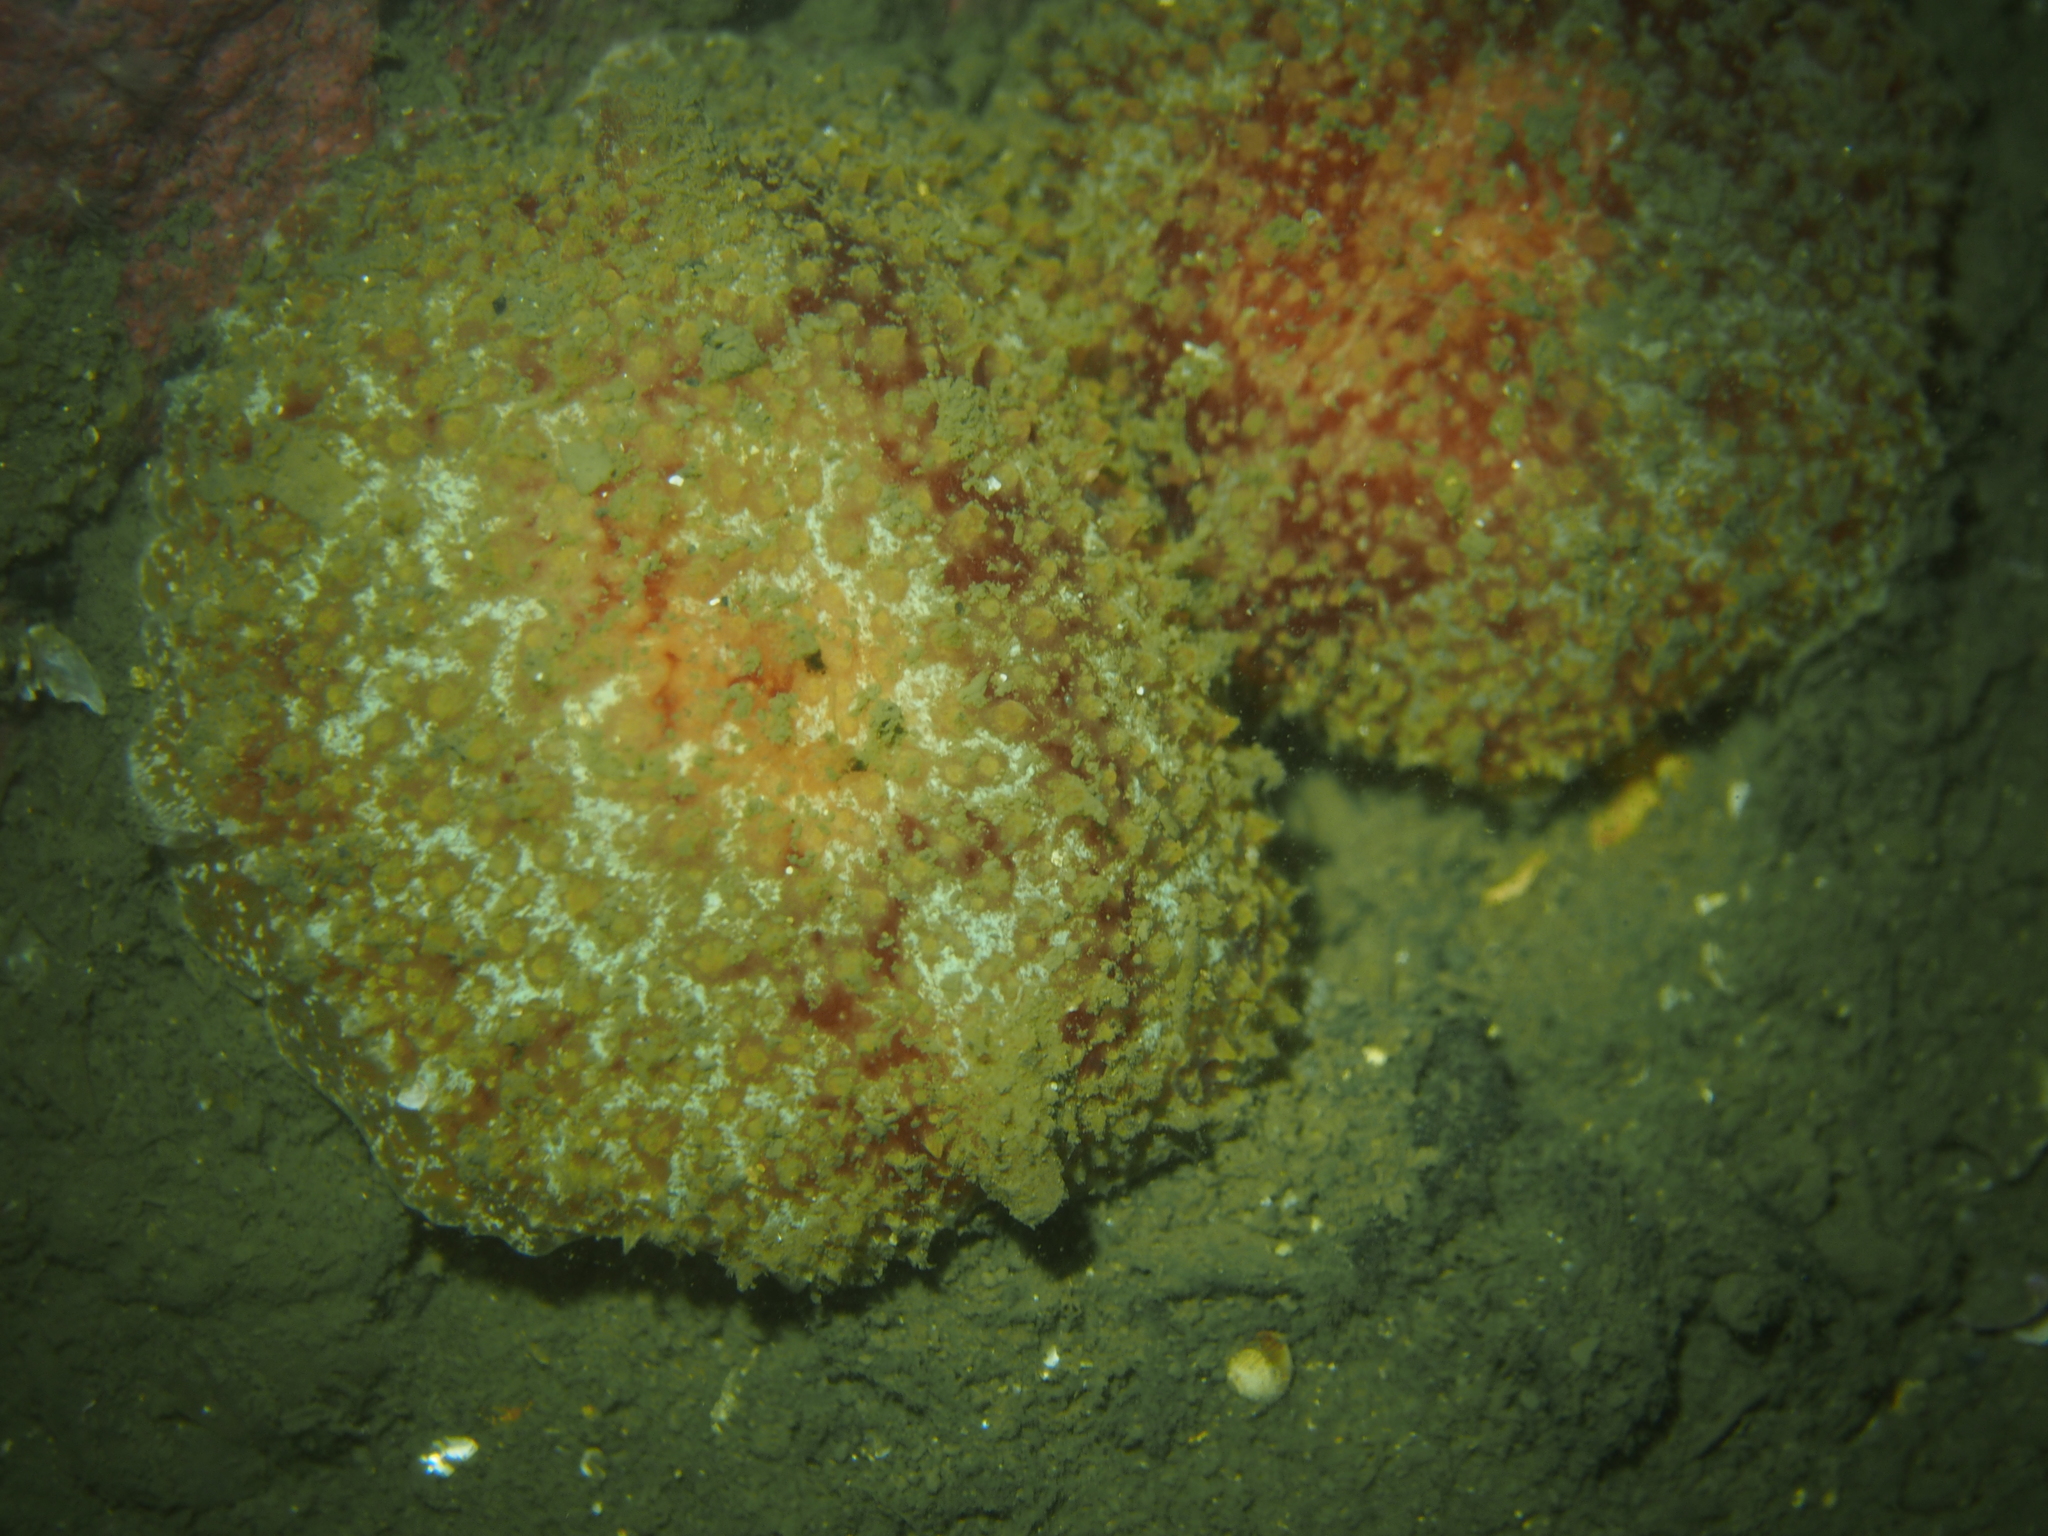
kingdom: Animalia
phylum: Mollusca
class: Gastropoda
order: Pleurobranchida
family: Pleurobranchidae
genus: Pleurobranchus
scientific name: Pleurobranchus membranaceus
